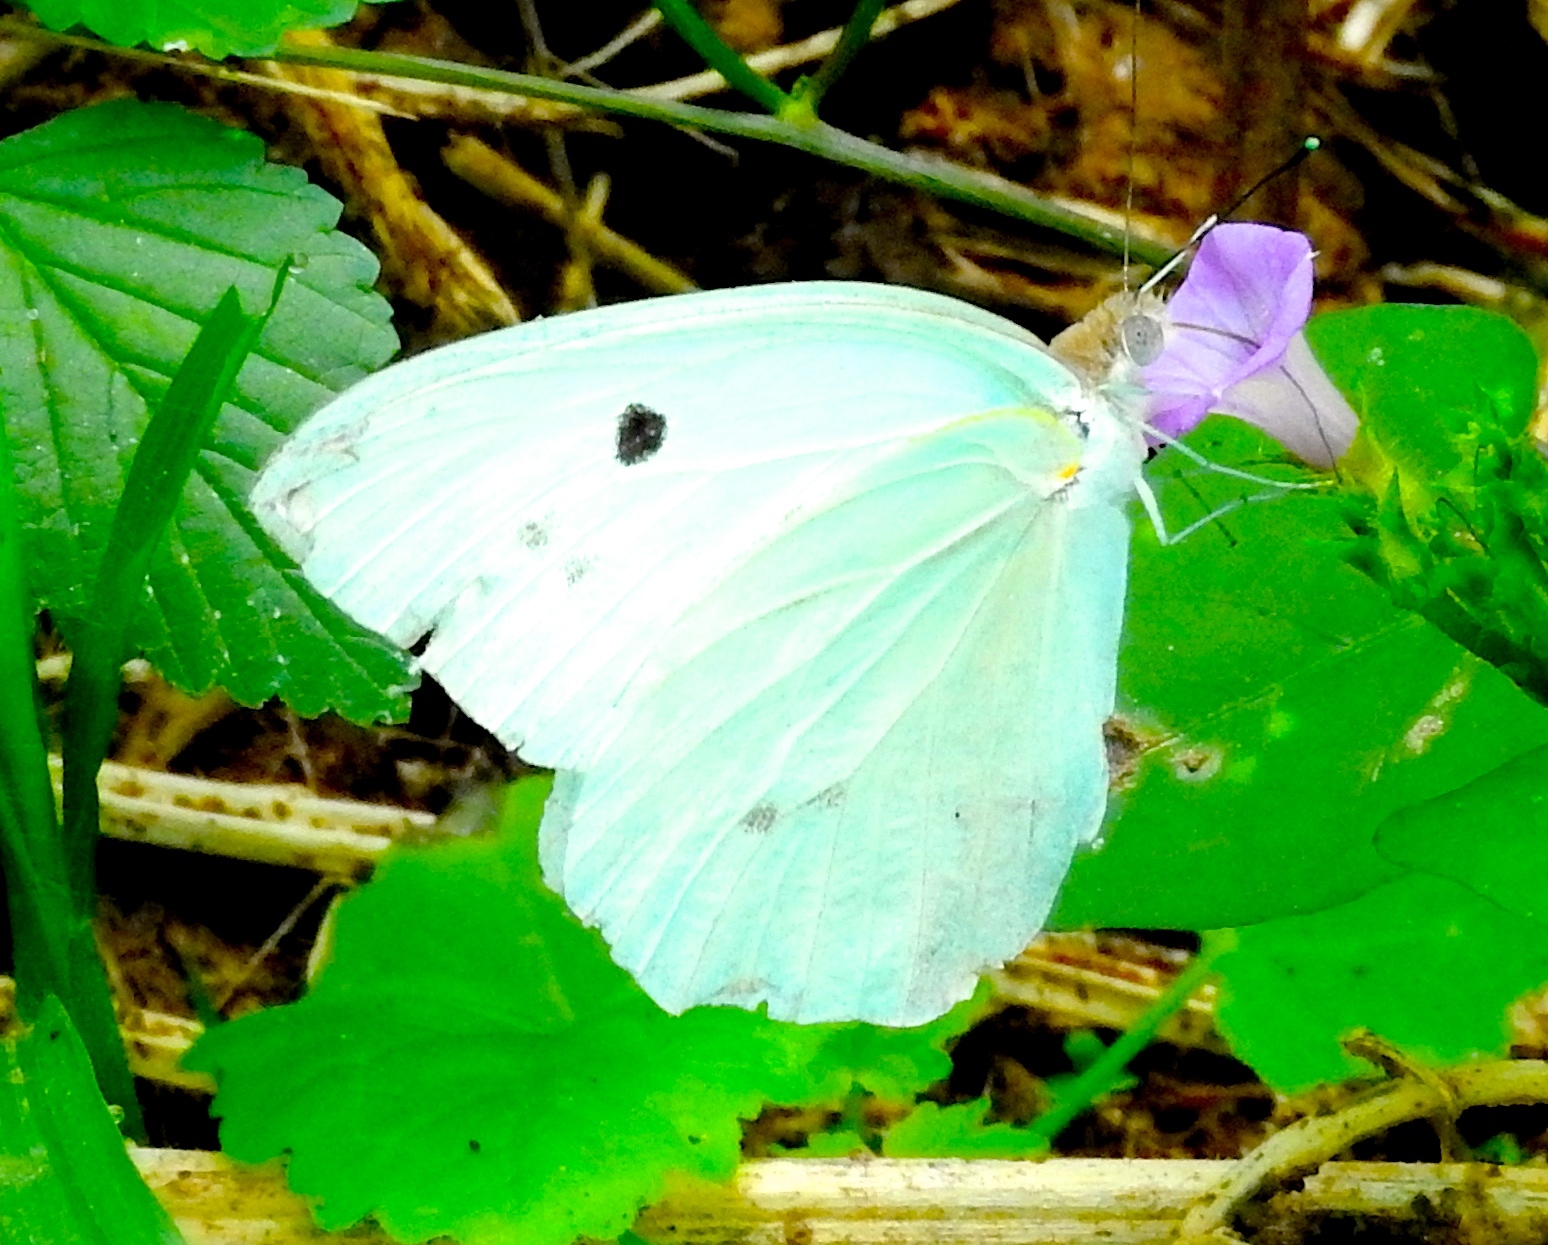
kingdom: Animalia
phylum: Arthropoda
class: Insecta
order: Lepidoptera
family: Pieridae
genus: Ganyra
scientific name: Ganyra josephina
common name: Giant white
